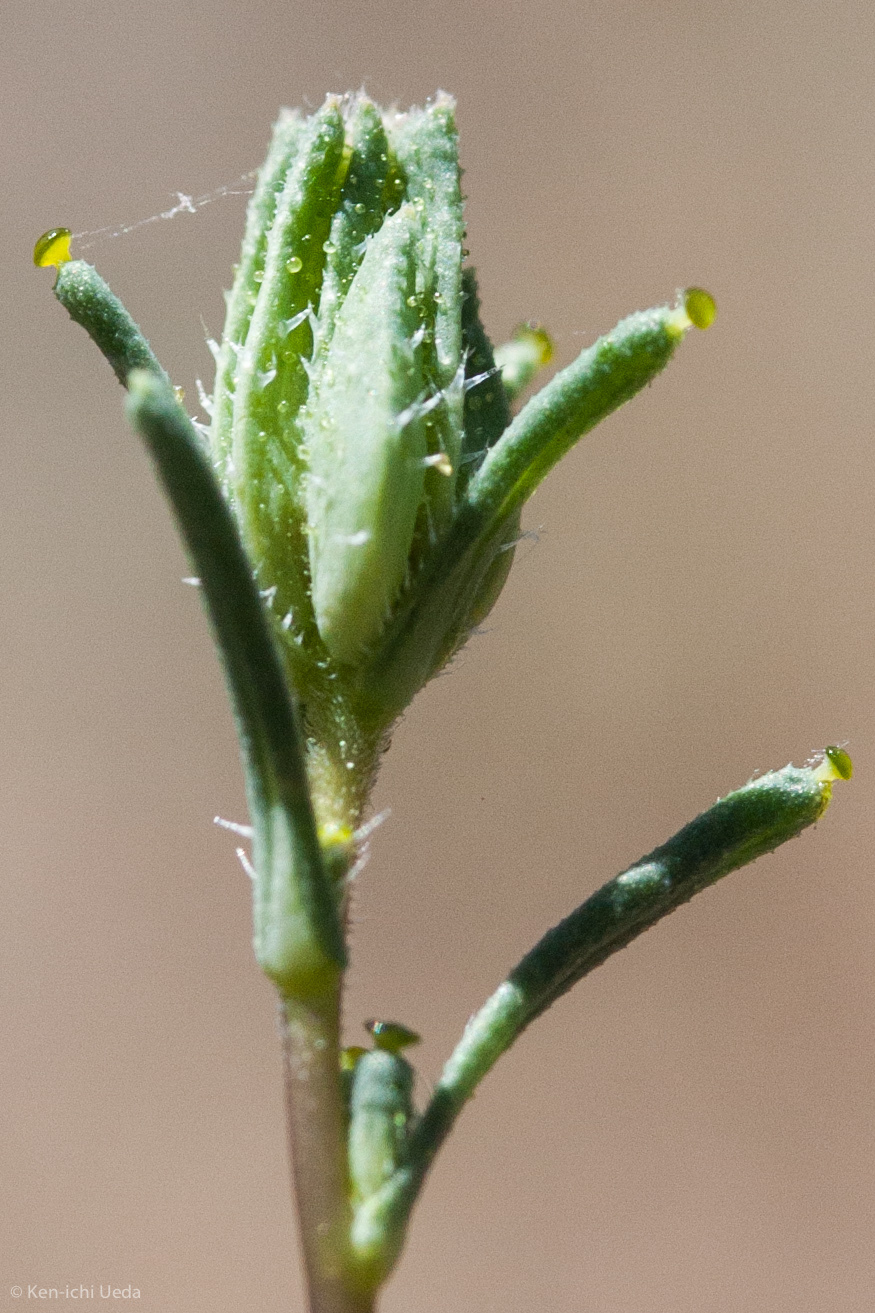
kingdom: Plantae
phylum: Tracheophyta
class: Magnoliopsida
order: Asterales
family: Asteraceae
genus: Calycadenia
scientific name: Calycadenia micrantha
